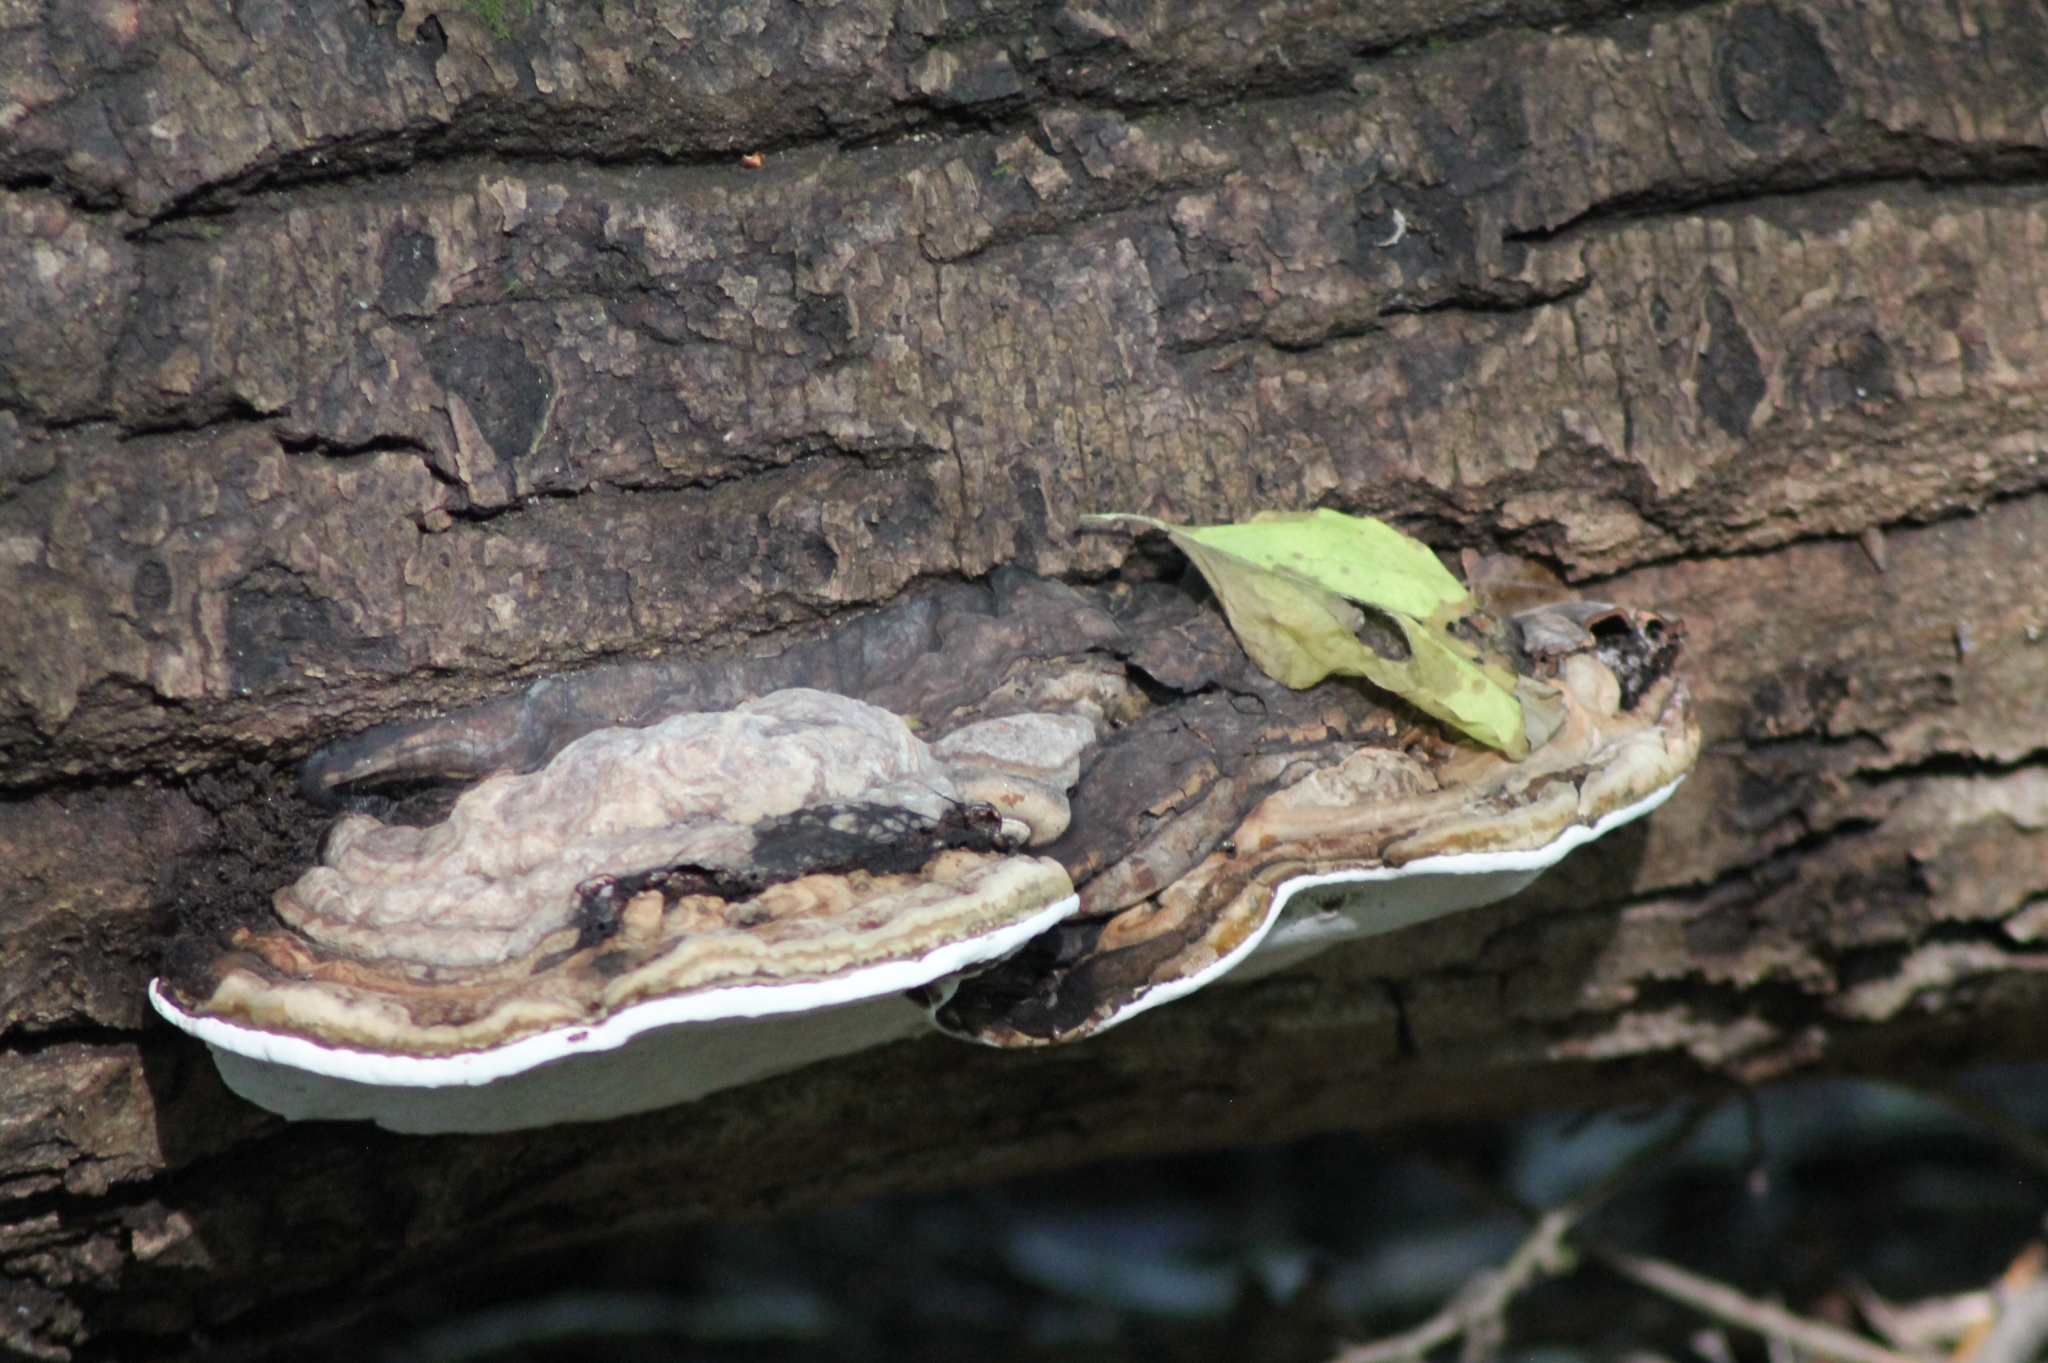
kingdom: Fungi
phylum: Basidiomycota
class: Agaricomycetes
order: Polyporales
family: Polyporaceae
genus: Ganoderma
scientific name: Ganoderma applanatum
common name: Artist's bracket
